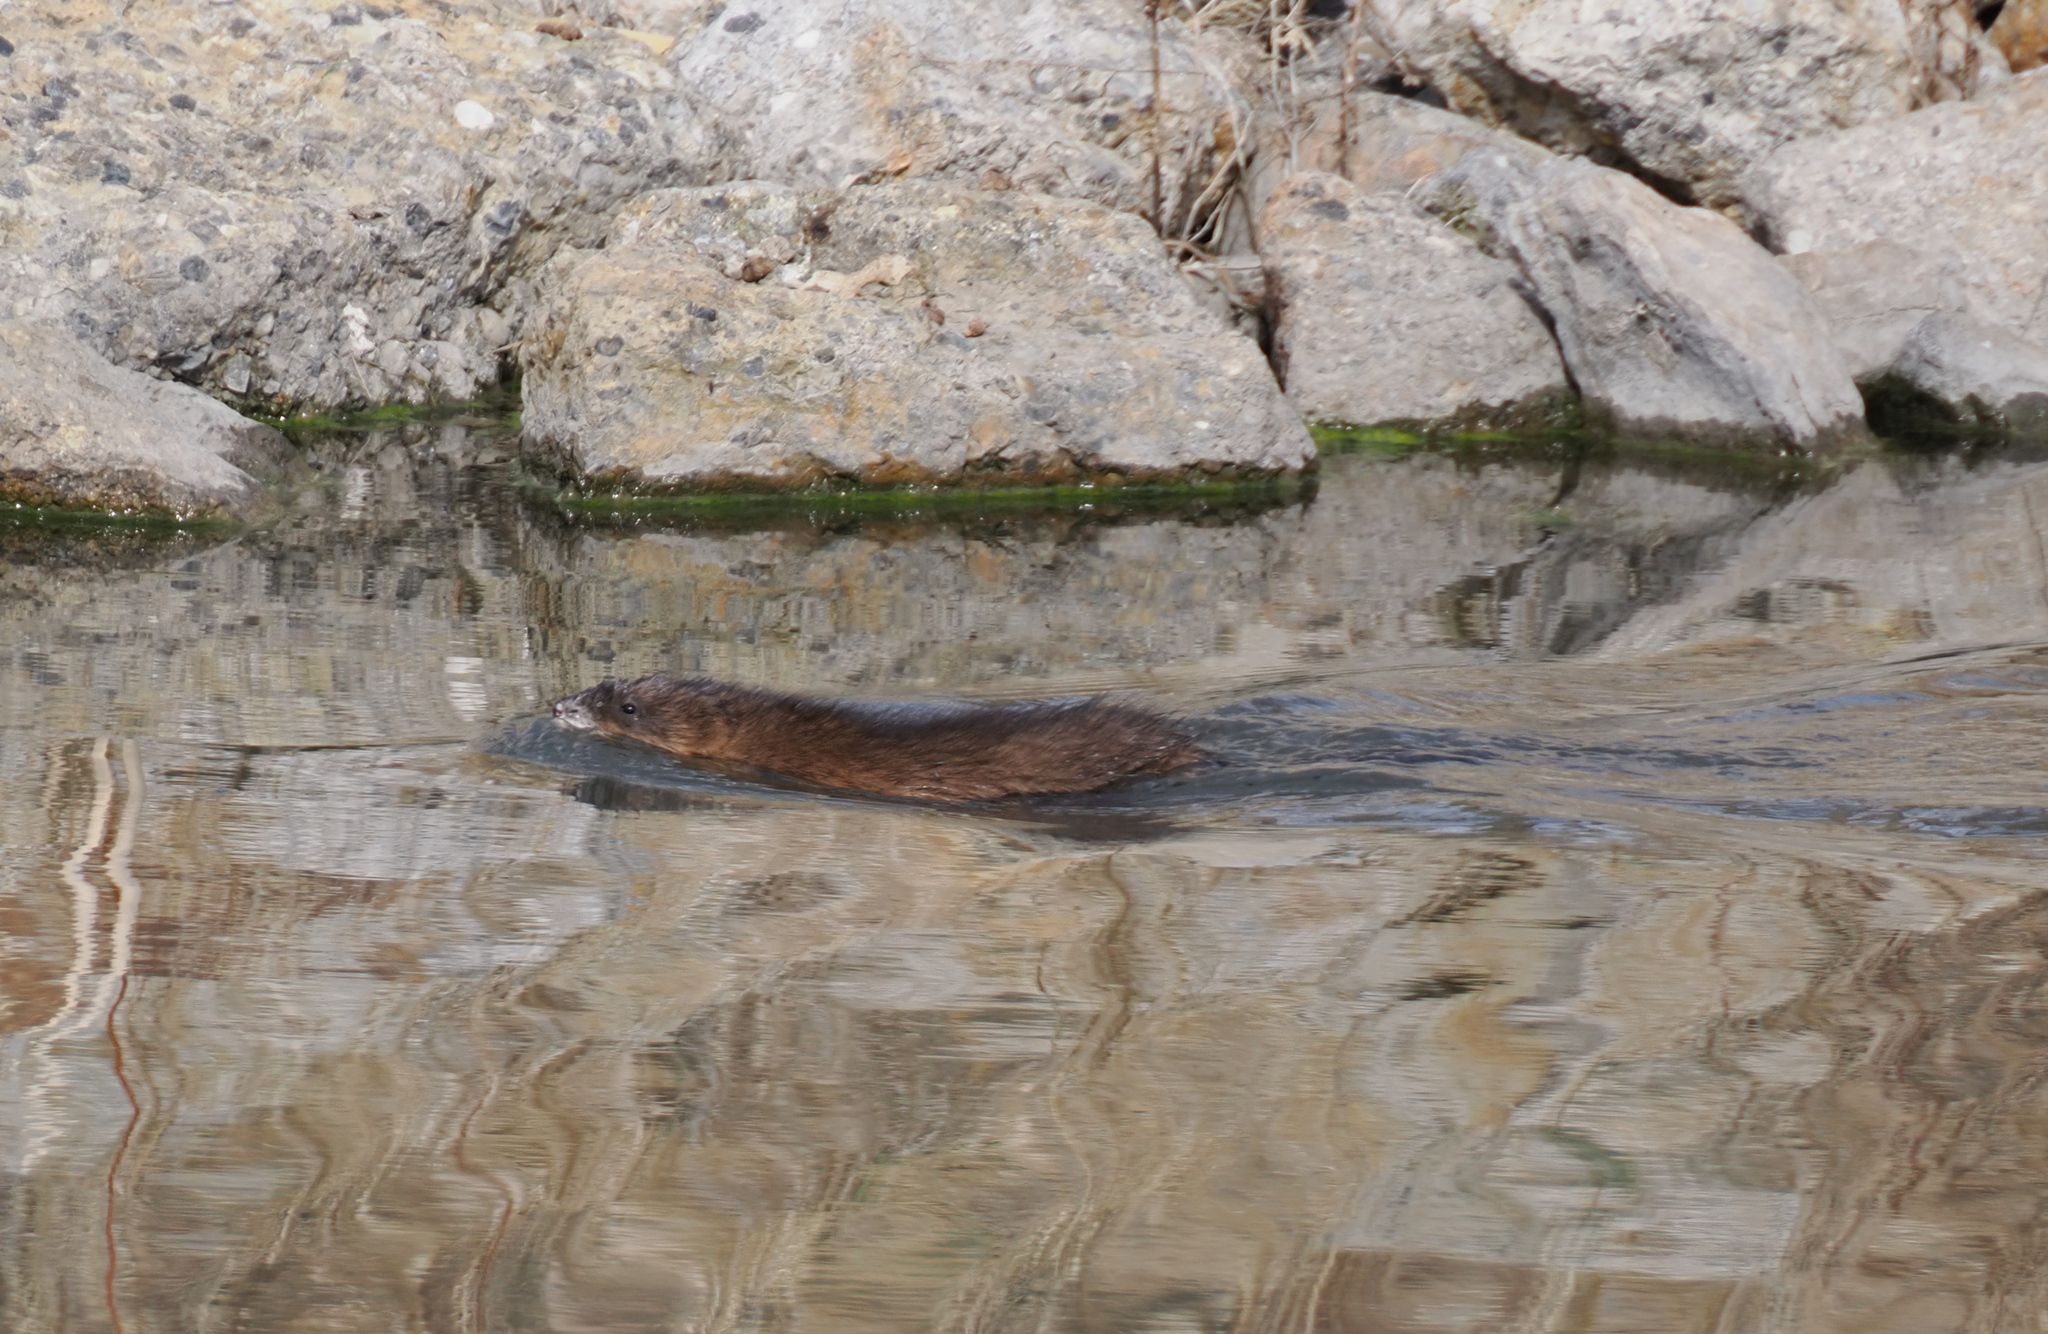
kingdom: Animalia
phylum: Chordata
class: Mammalia
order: Rodentia
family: Cricetidae
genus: Ondatra
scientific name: Ondatra zibethicus
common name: Muskrat
